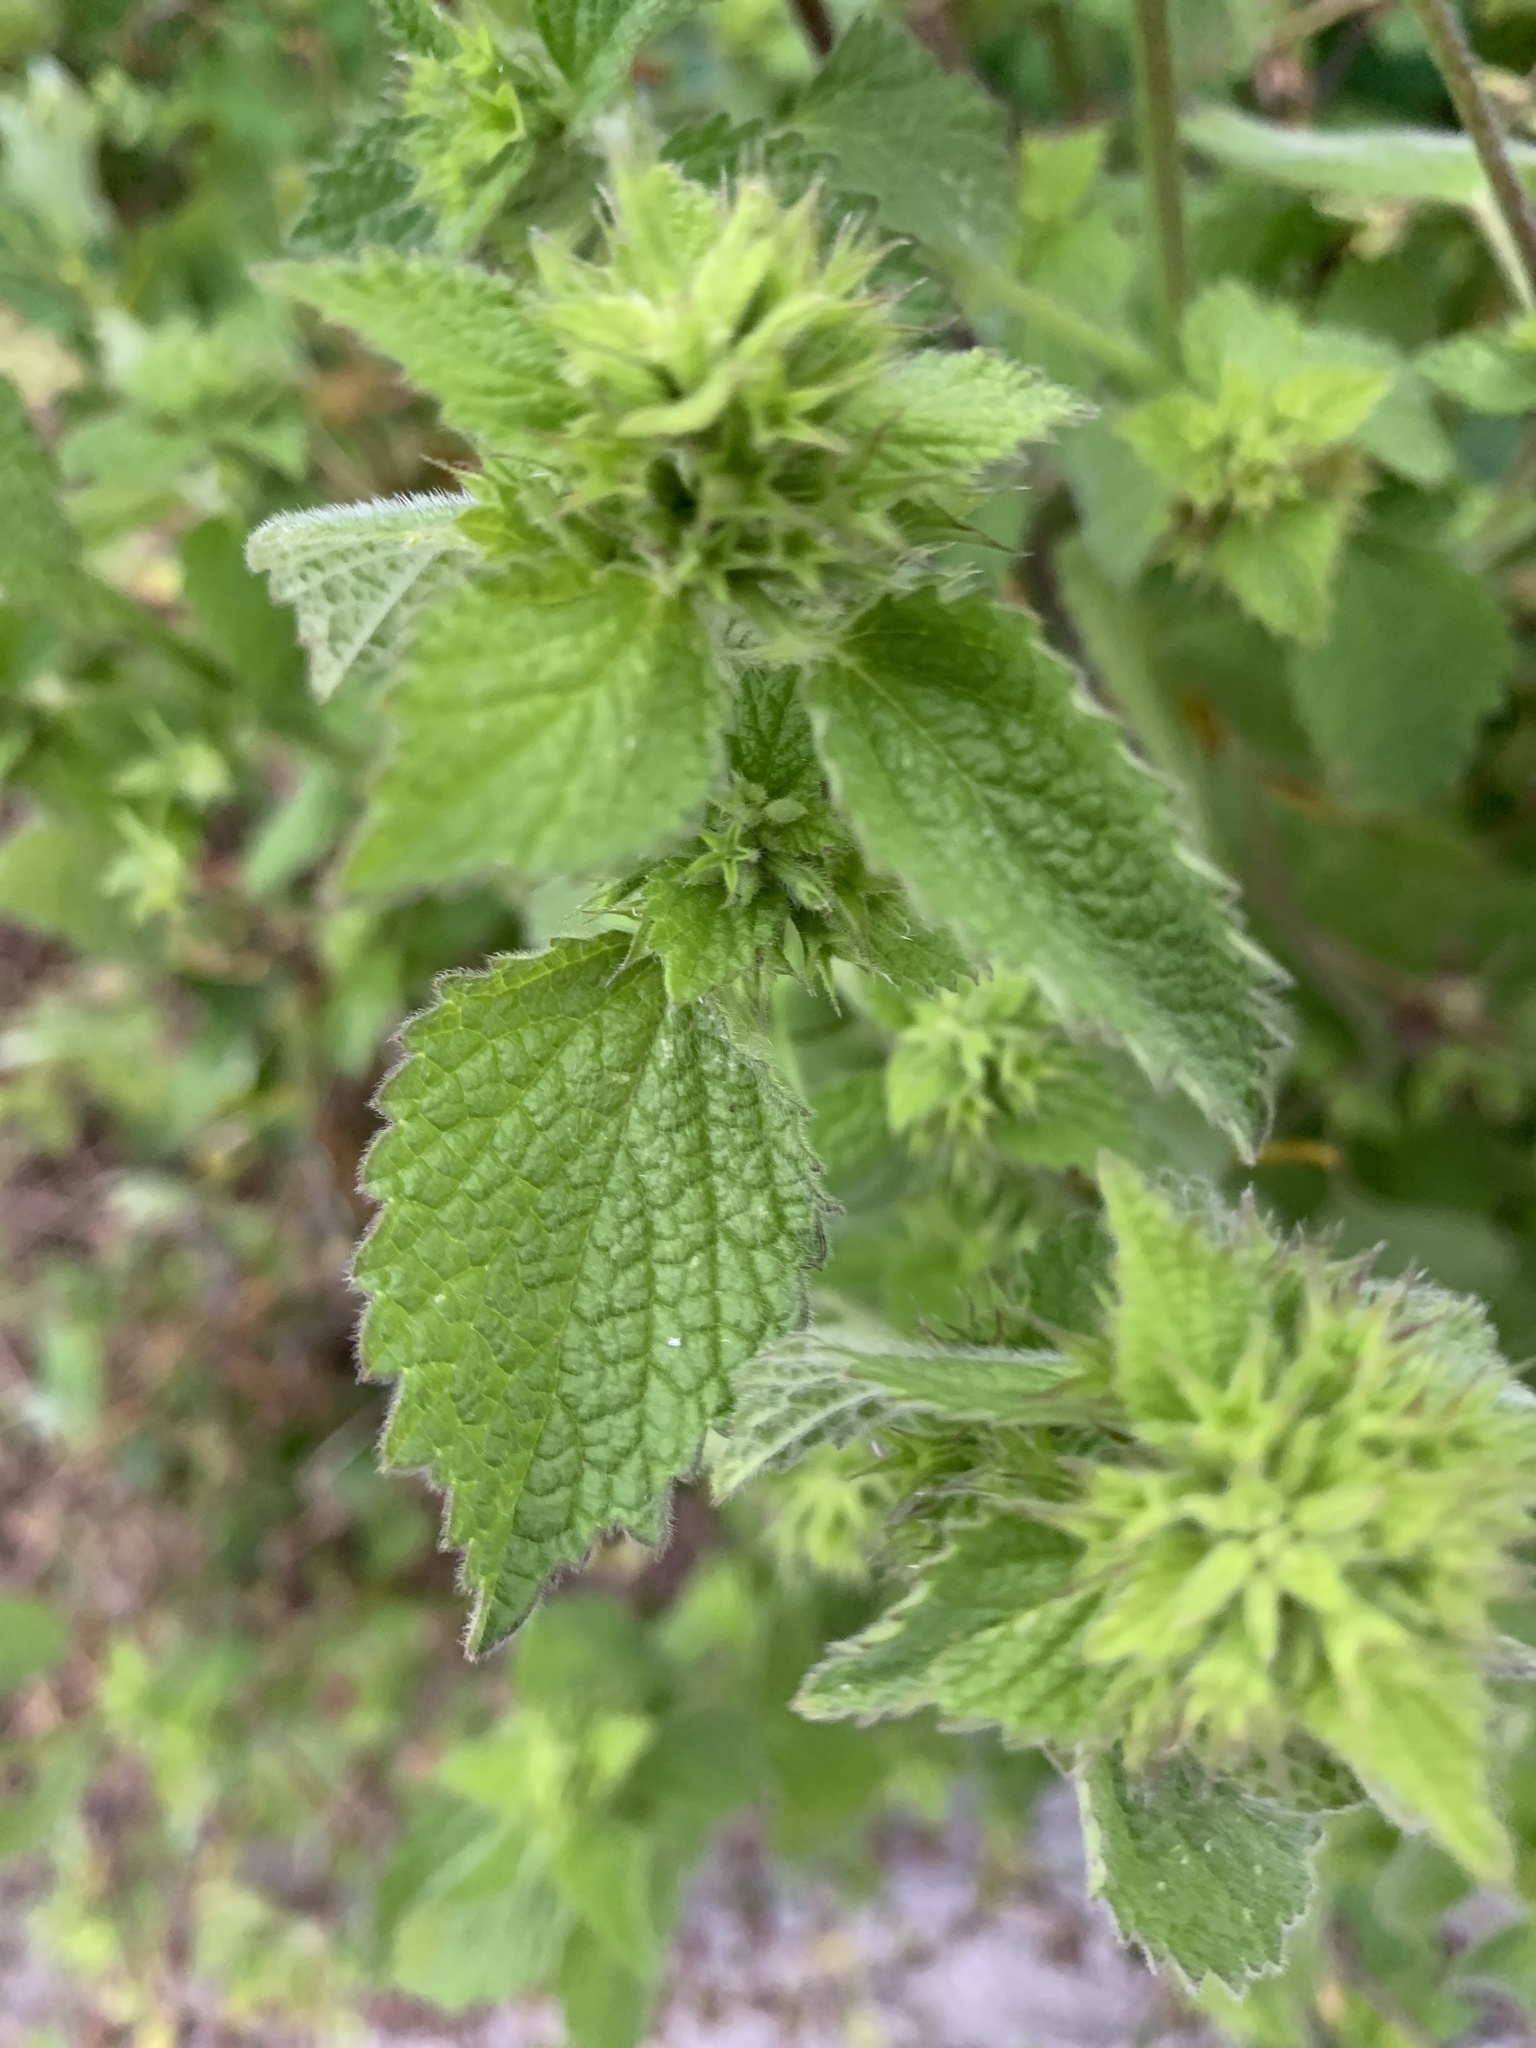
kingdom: Plantae
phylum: Tracheophyta
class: Magnoliopsida
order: Lamiales
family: Lamiaceae
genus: Ballota
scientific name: Ballota nigra
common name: Black horehound
